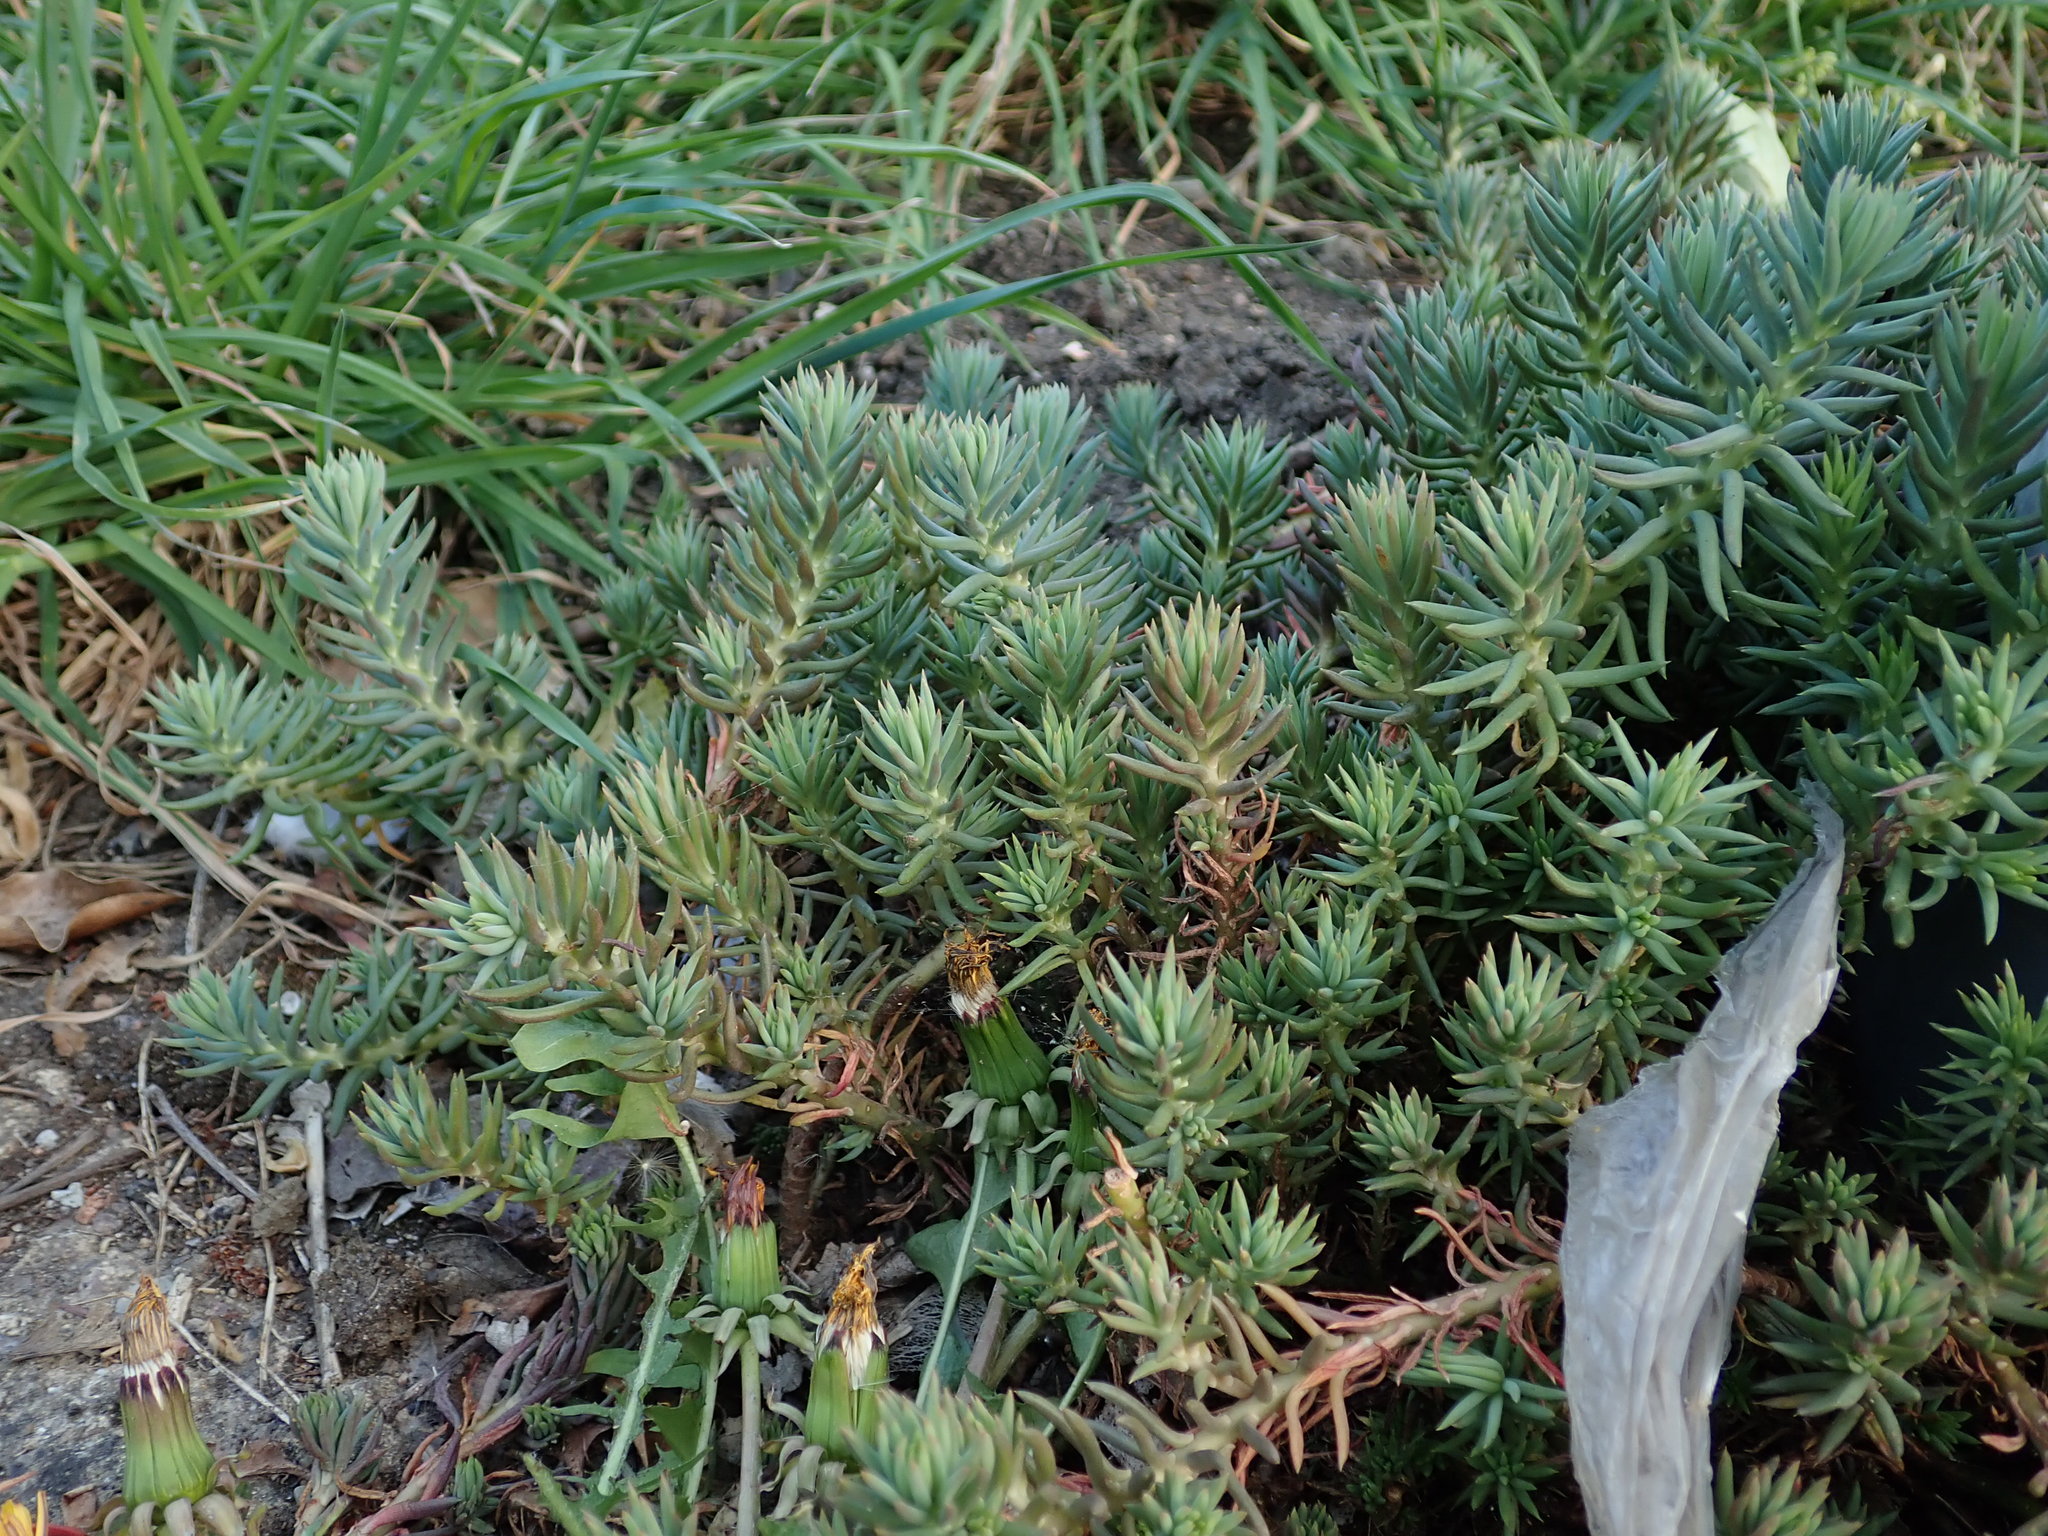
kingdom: Plantae
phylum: Tracheophyta
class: Magnoliopsida
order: Saxifragales
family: Crassulaceae
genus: Petrosedum
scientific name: Petrosedum rupestre
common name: Jenny's stonecrop
